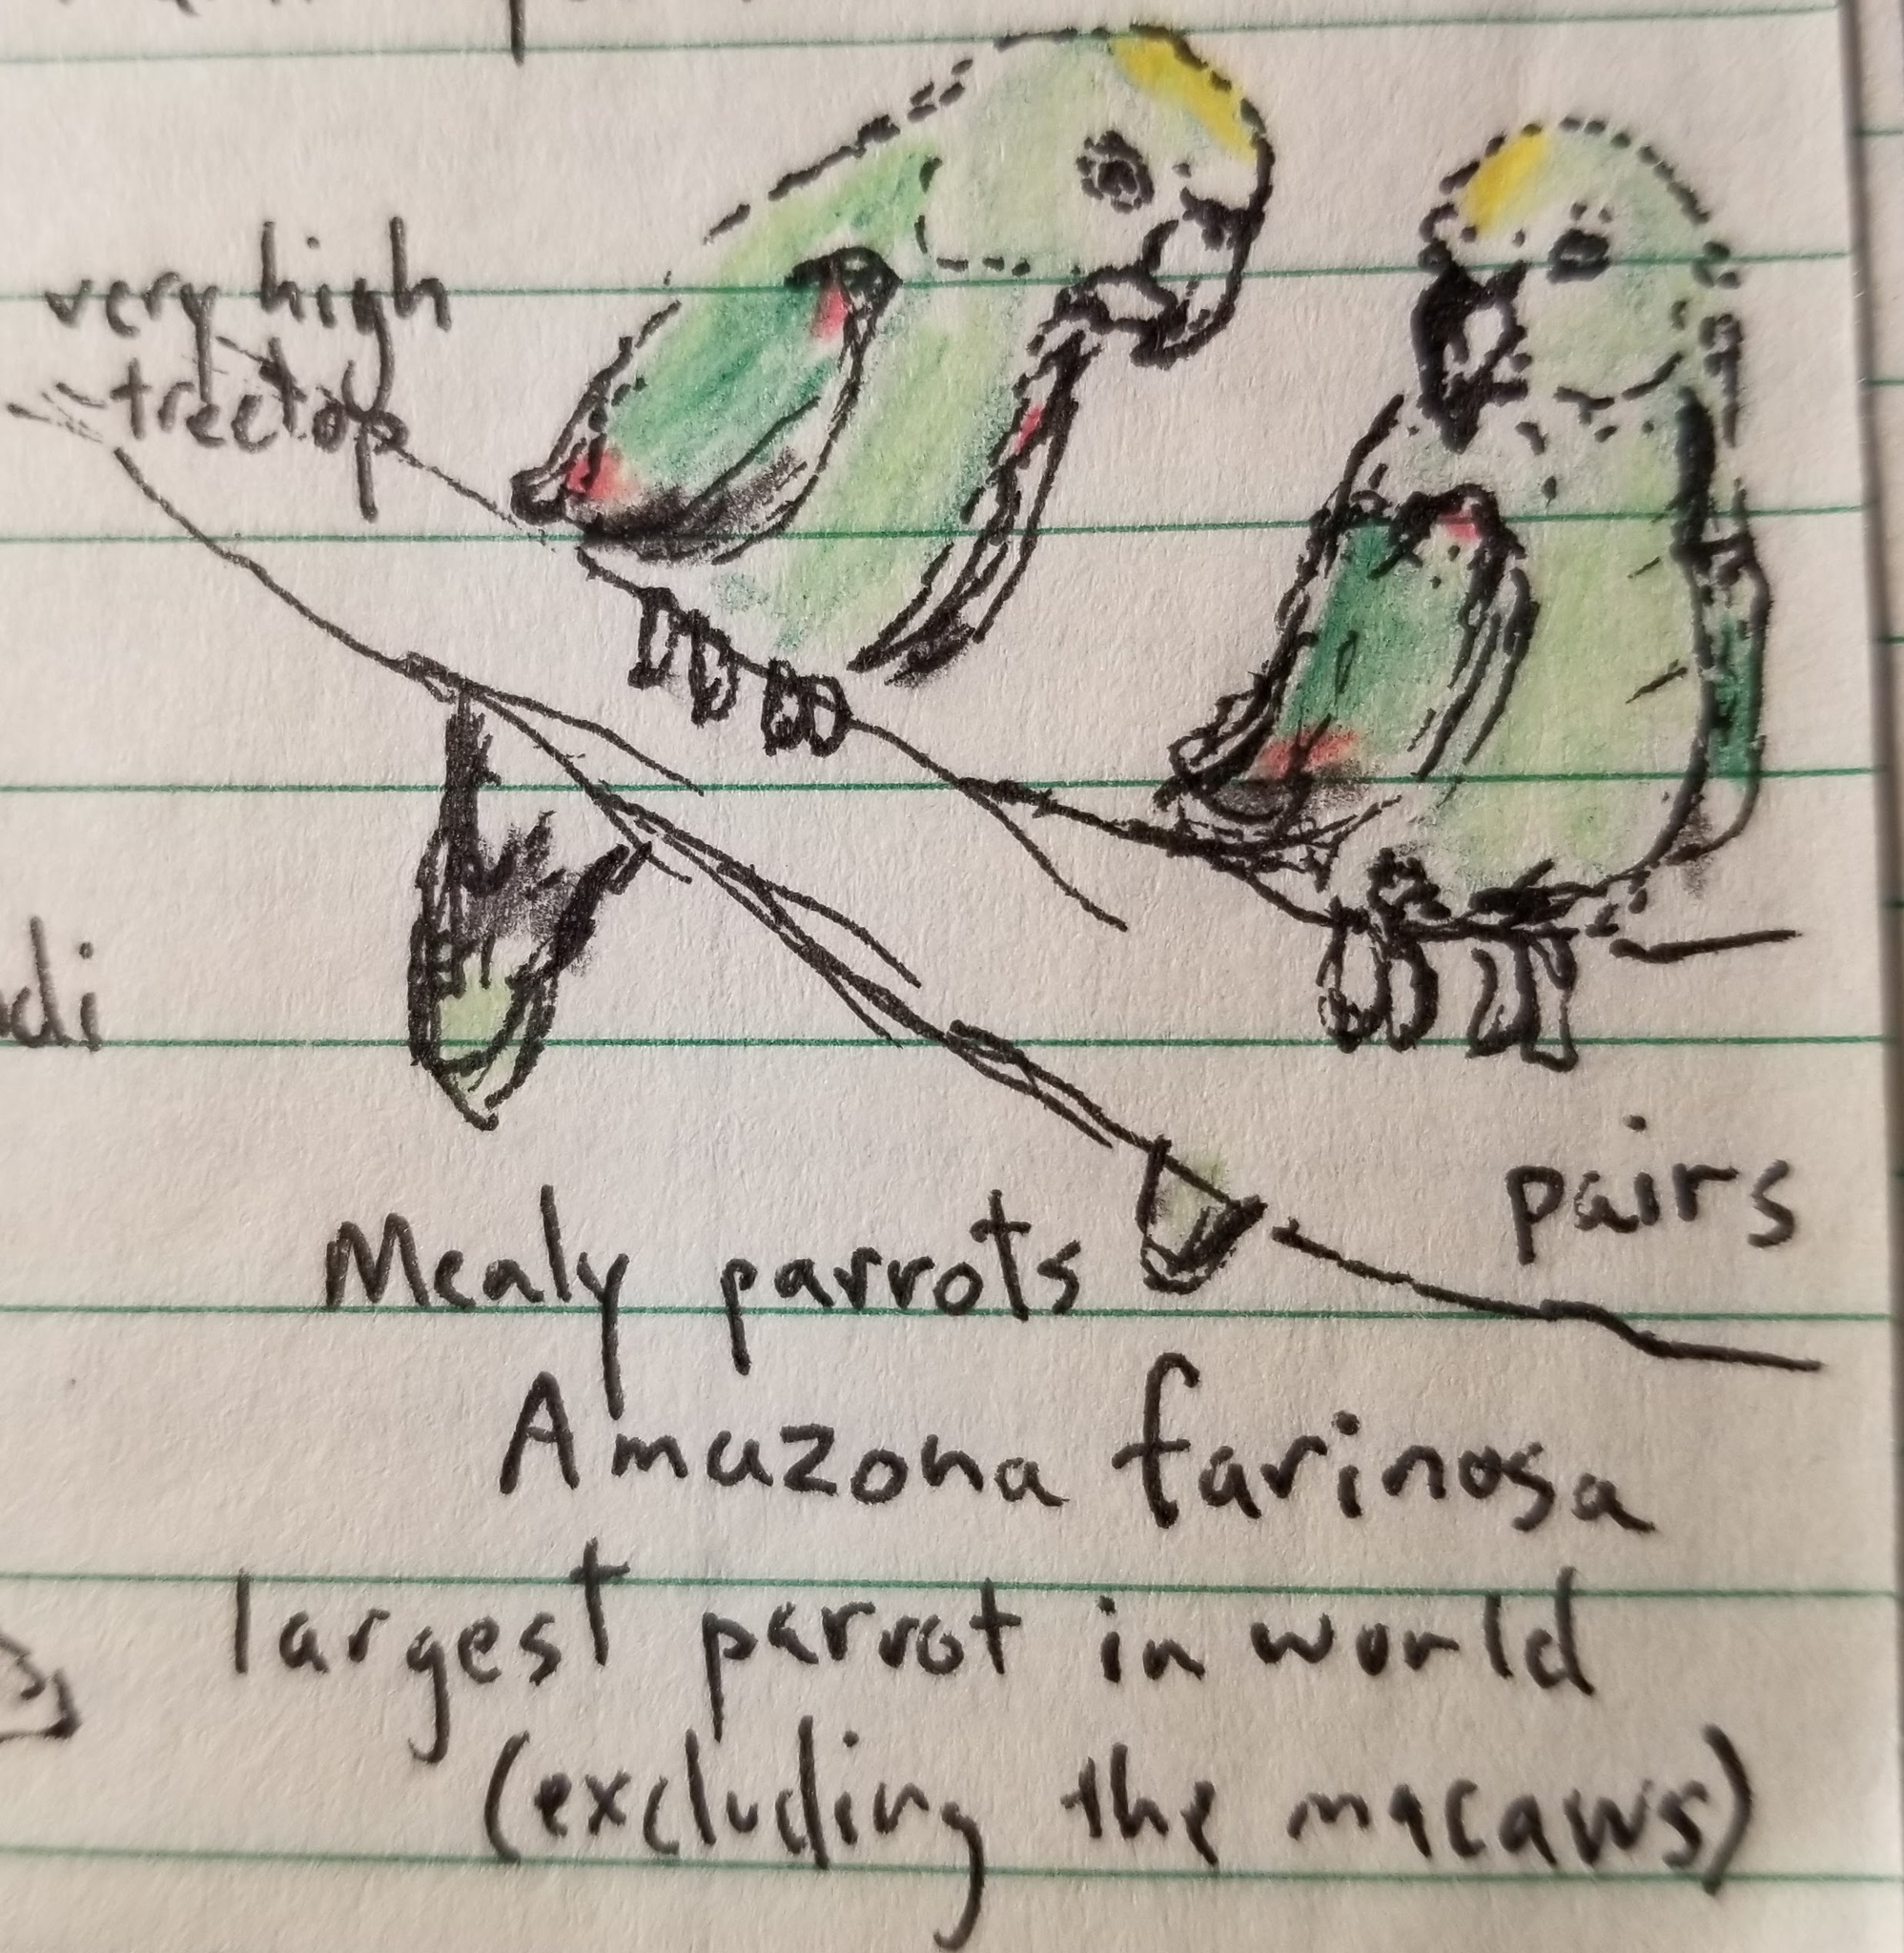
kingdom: Animalia
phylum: Chordata
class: Aves
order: Psittaciformes
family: Psittacidae
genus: Amazona
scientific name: Amazona ochrocephala
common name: Yellow-crowned amazon
